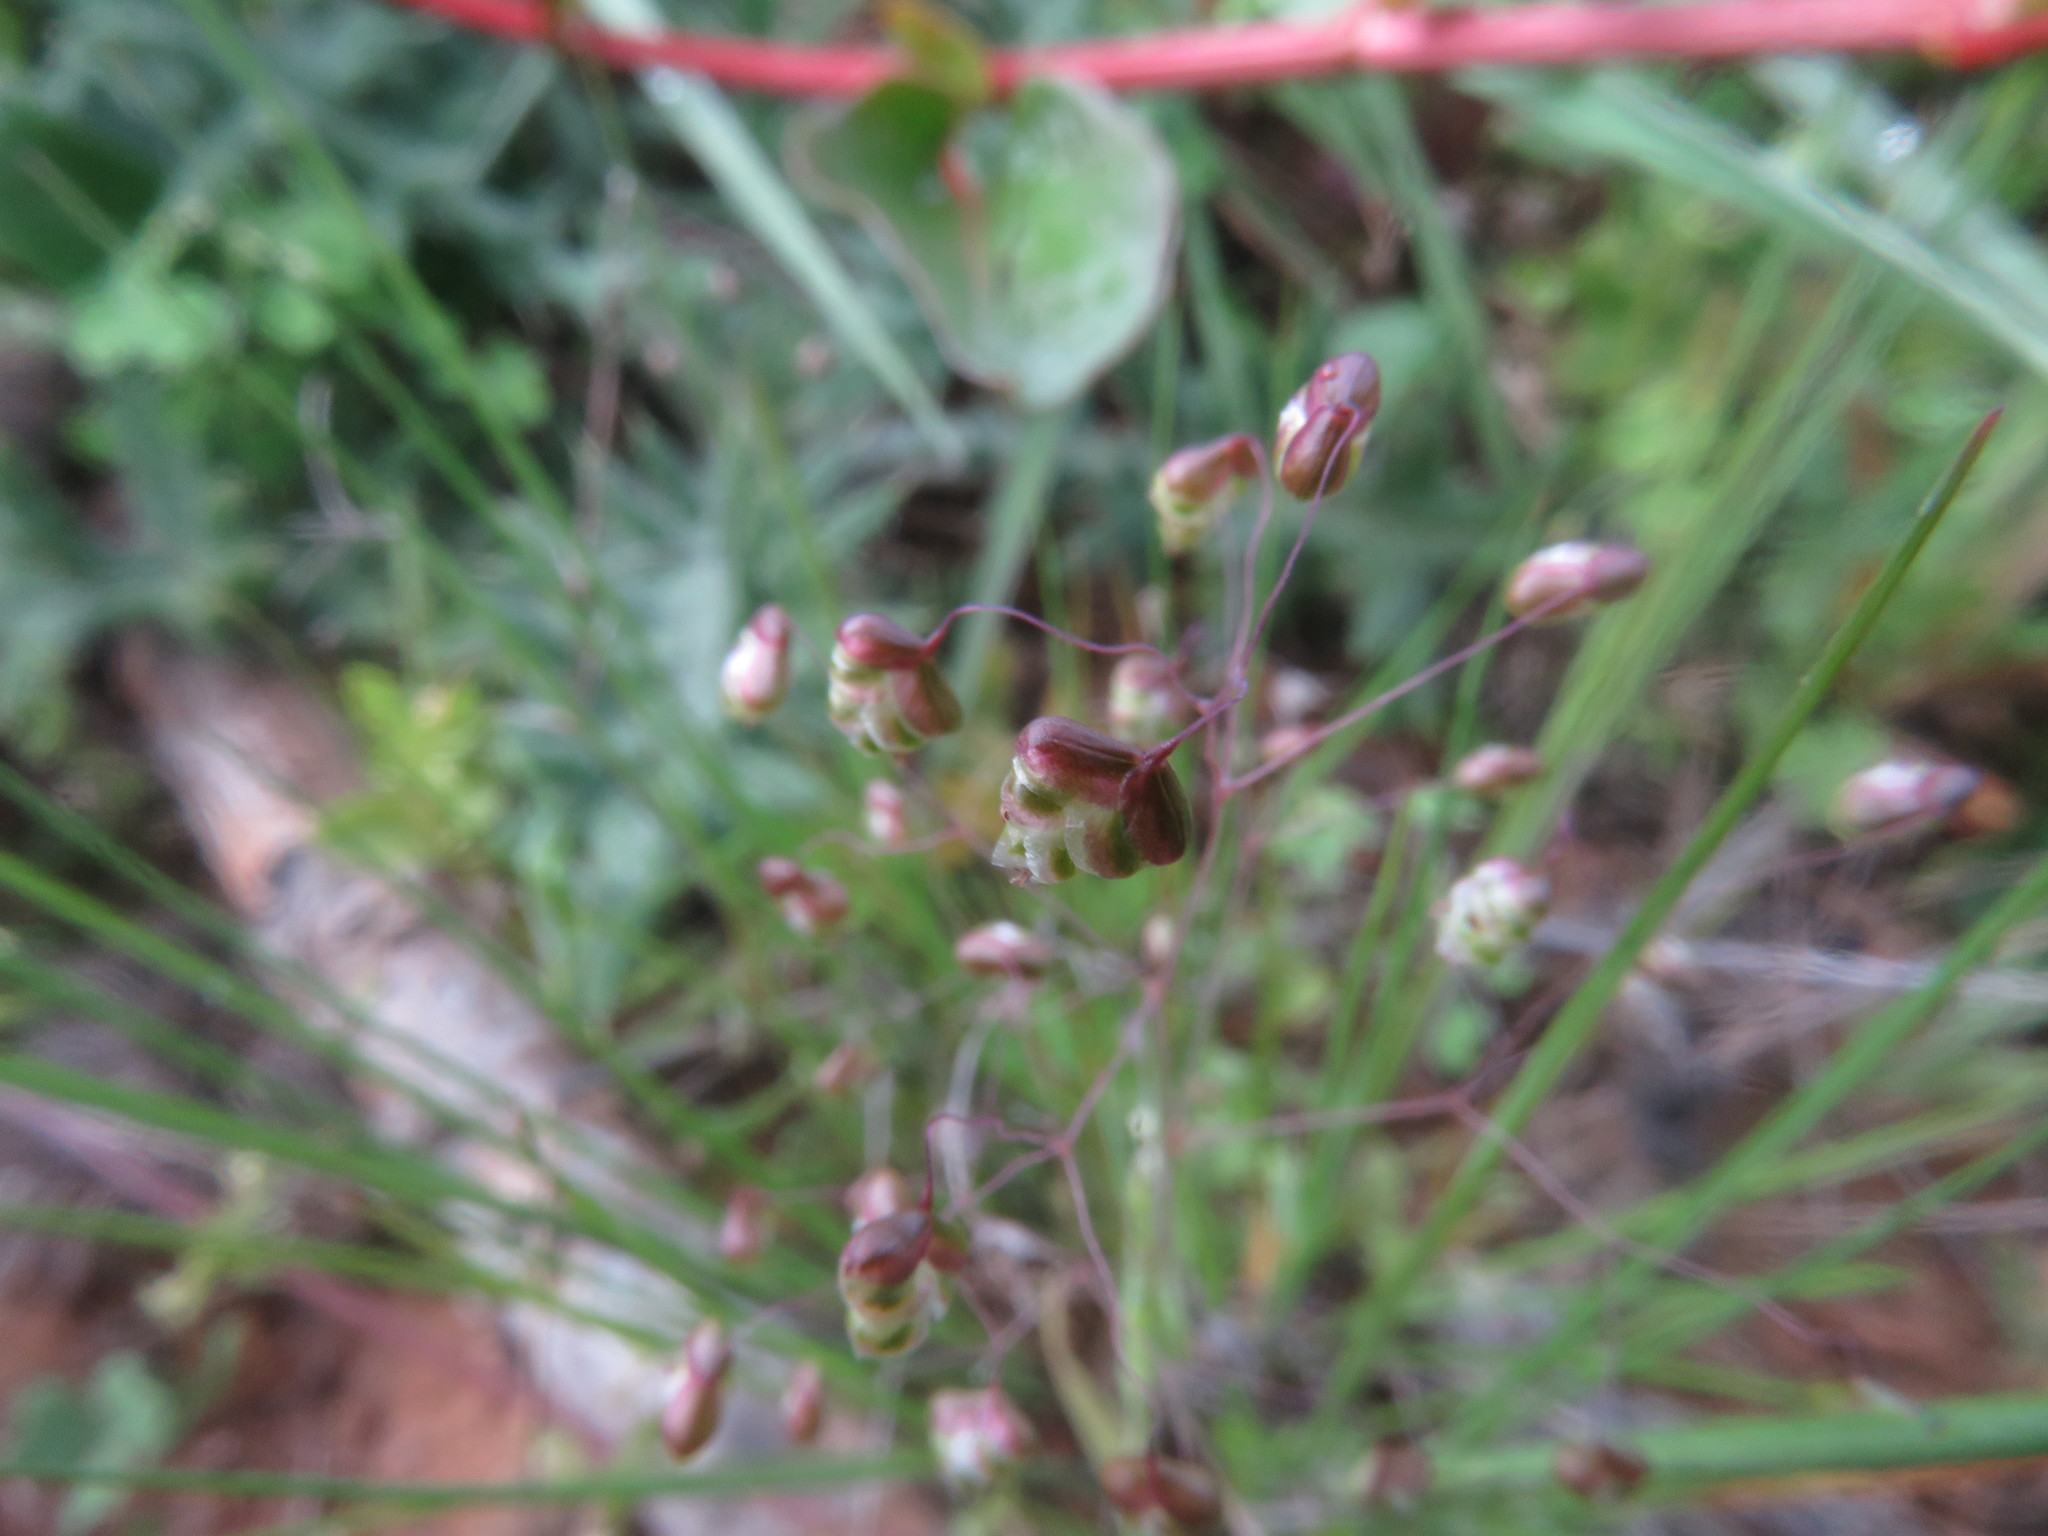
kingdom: Plantae
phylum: Tracheophyta
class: Liliopsida
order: Poales
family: Poaceae
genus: Briza
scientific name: Briza minor
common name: Lesser quaking-grass
